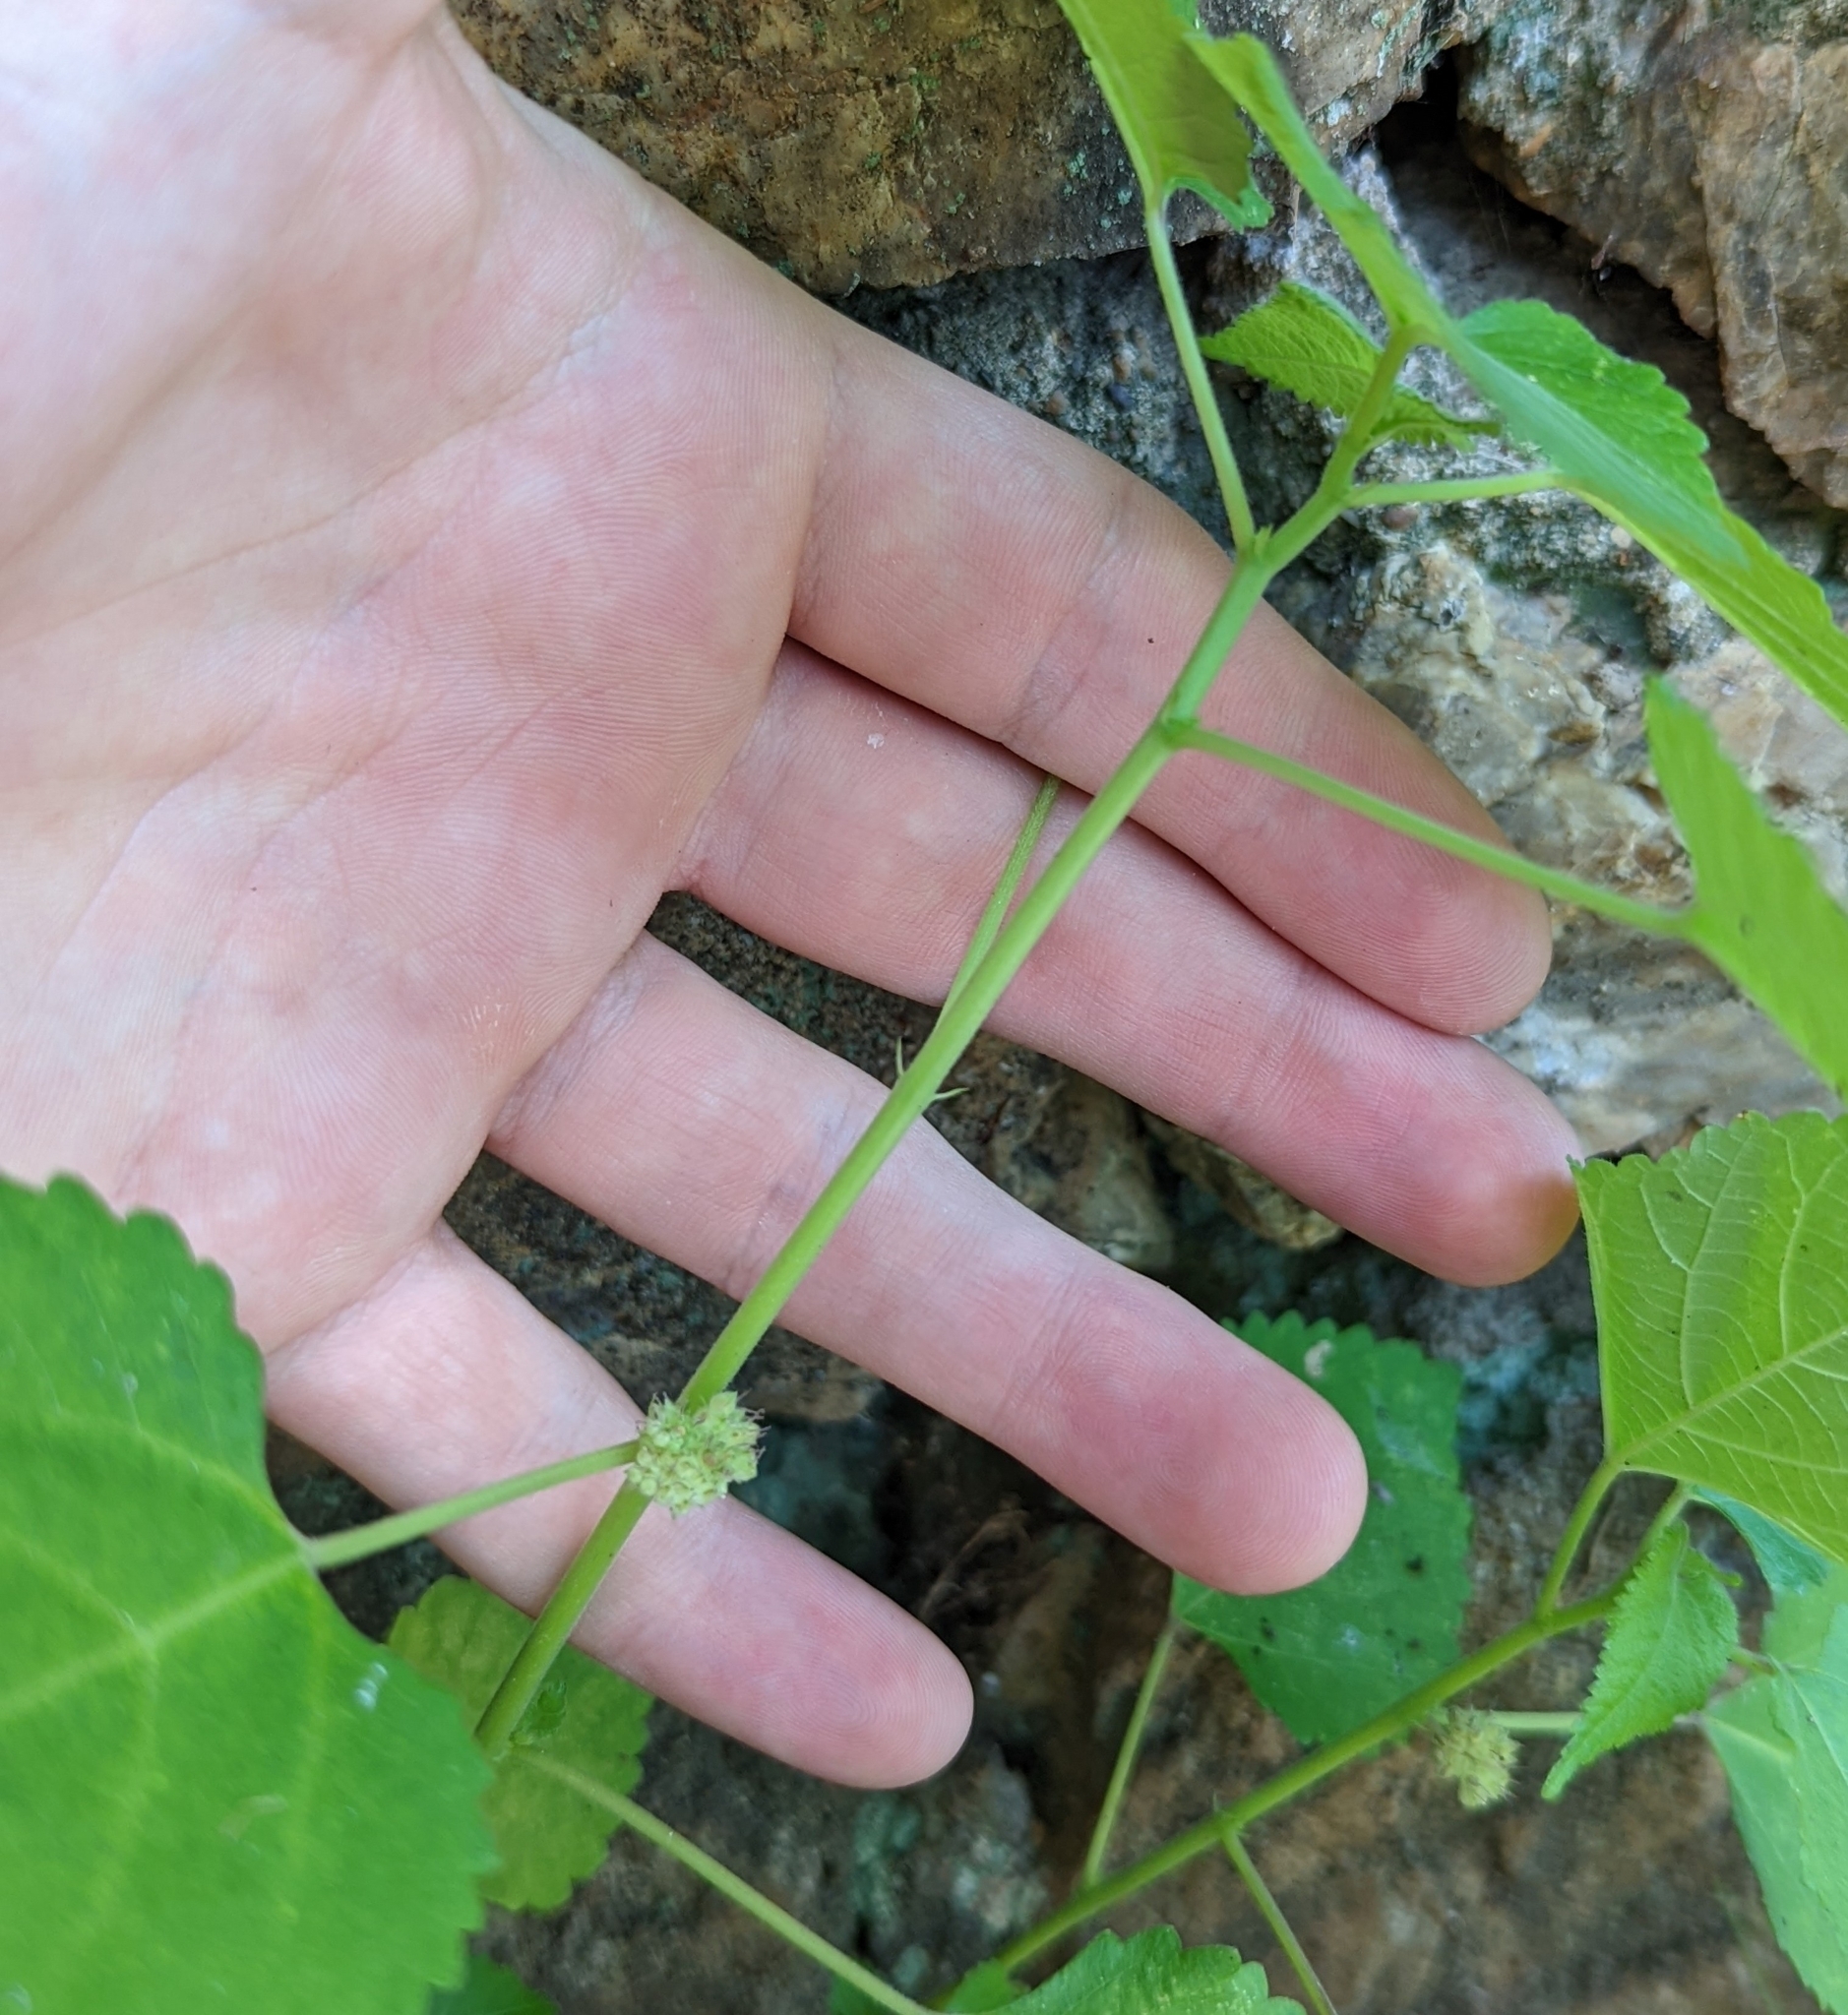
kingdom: Plantae
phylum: Tracheophyta
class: Magnoliopsida
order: Rosales
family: Moraceae
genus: Fatoua
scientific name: Fatoua villosa
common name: Hairy crabweed
